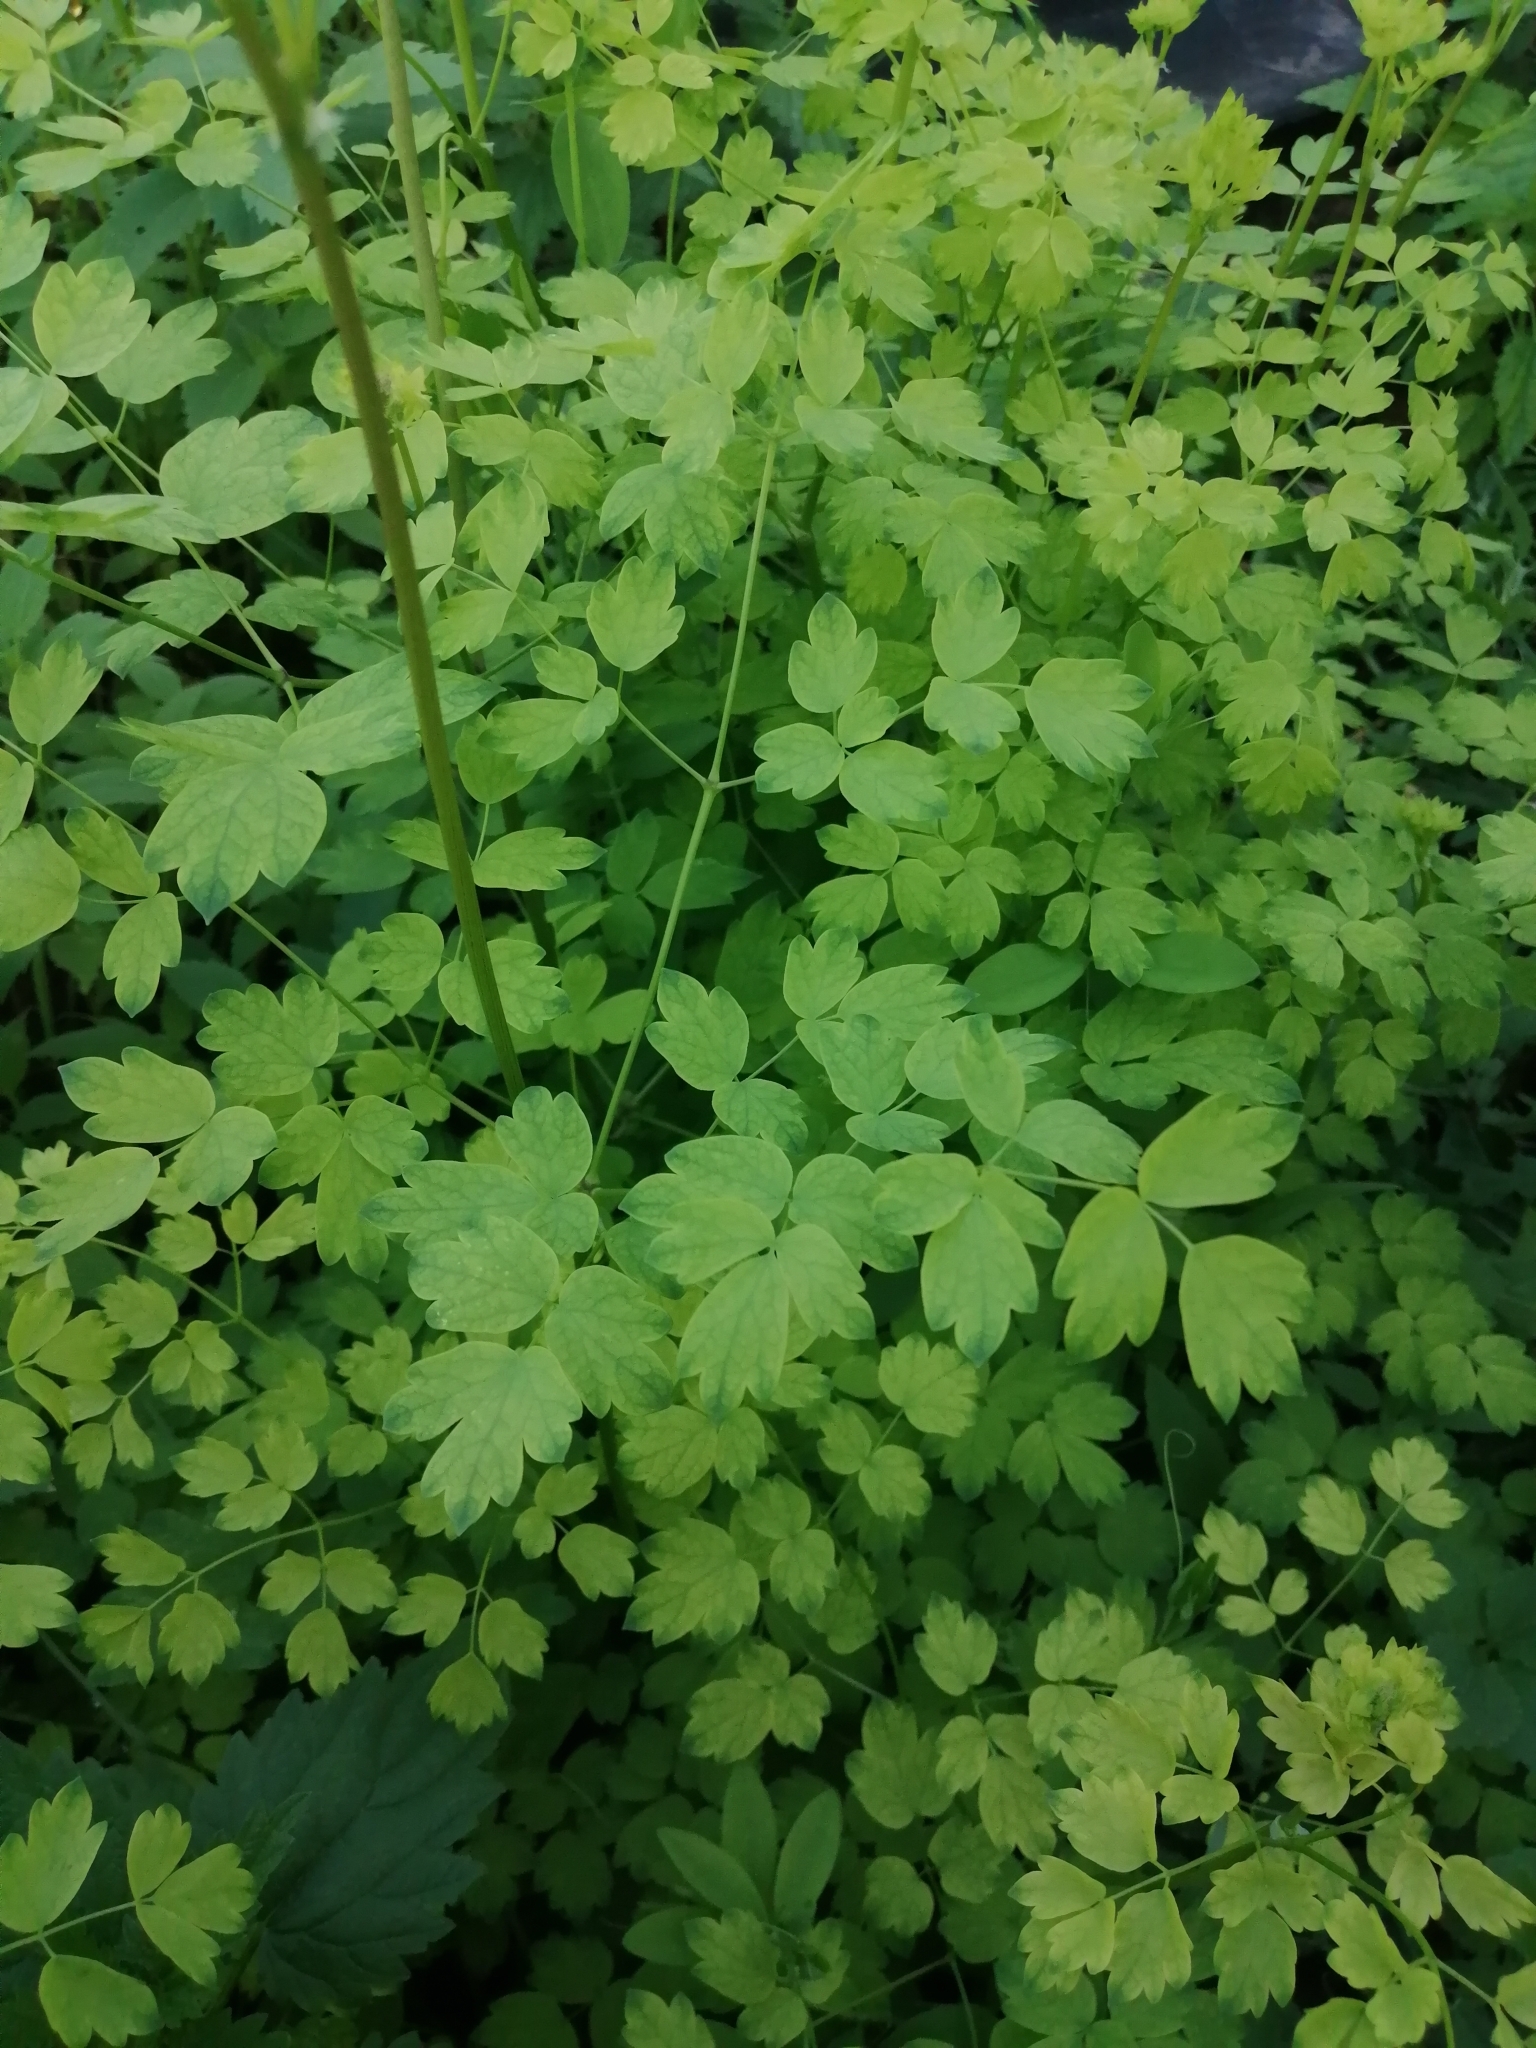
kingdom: Plantae
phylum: Tracheophyta
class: Magnoliopsida
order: Ranunculales
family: Ranunculaceae
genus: Thalictrum
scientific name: Thalictrum minus
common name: Lesser meadow-rue
